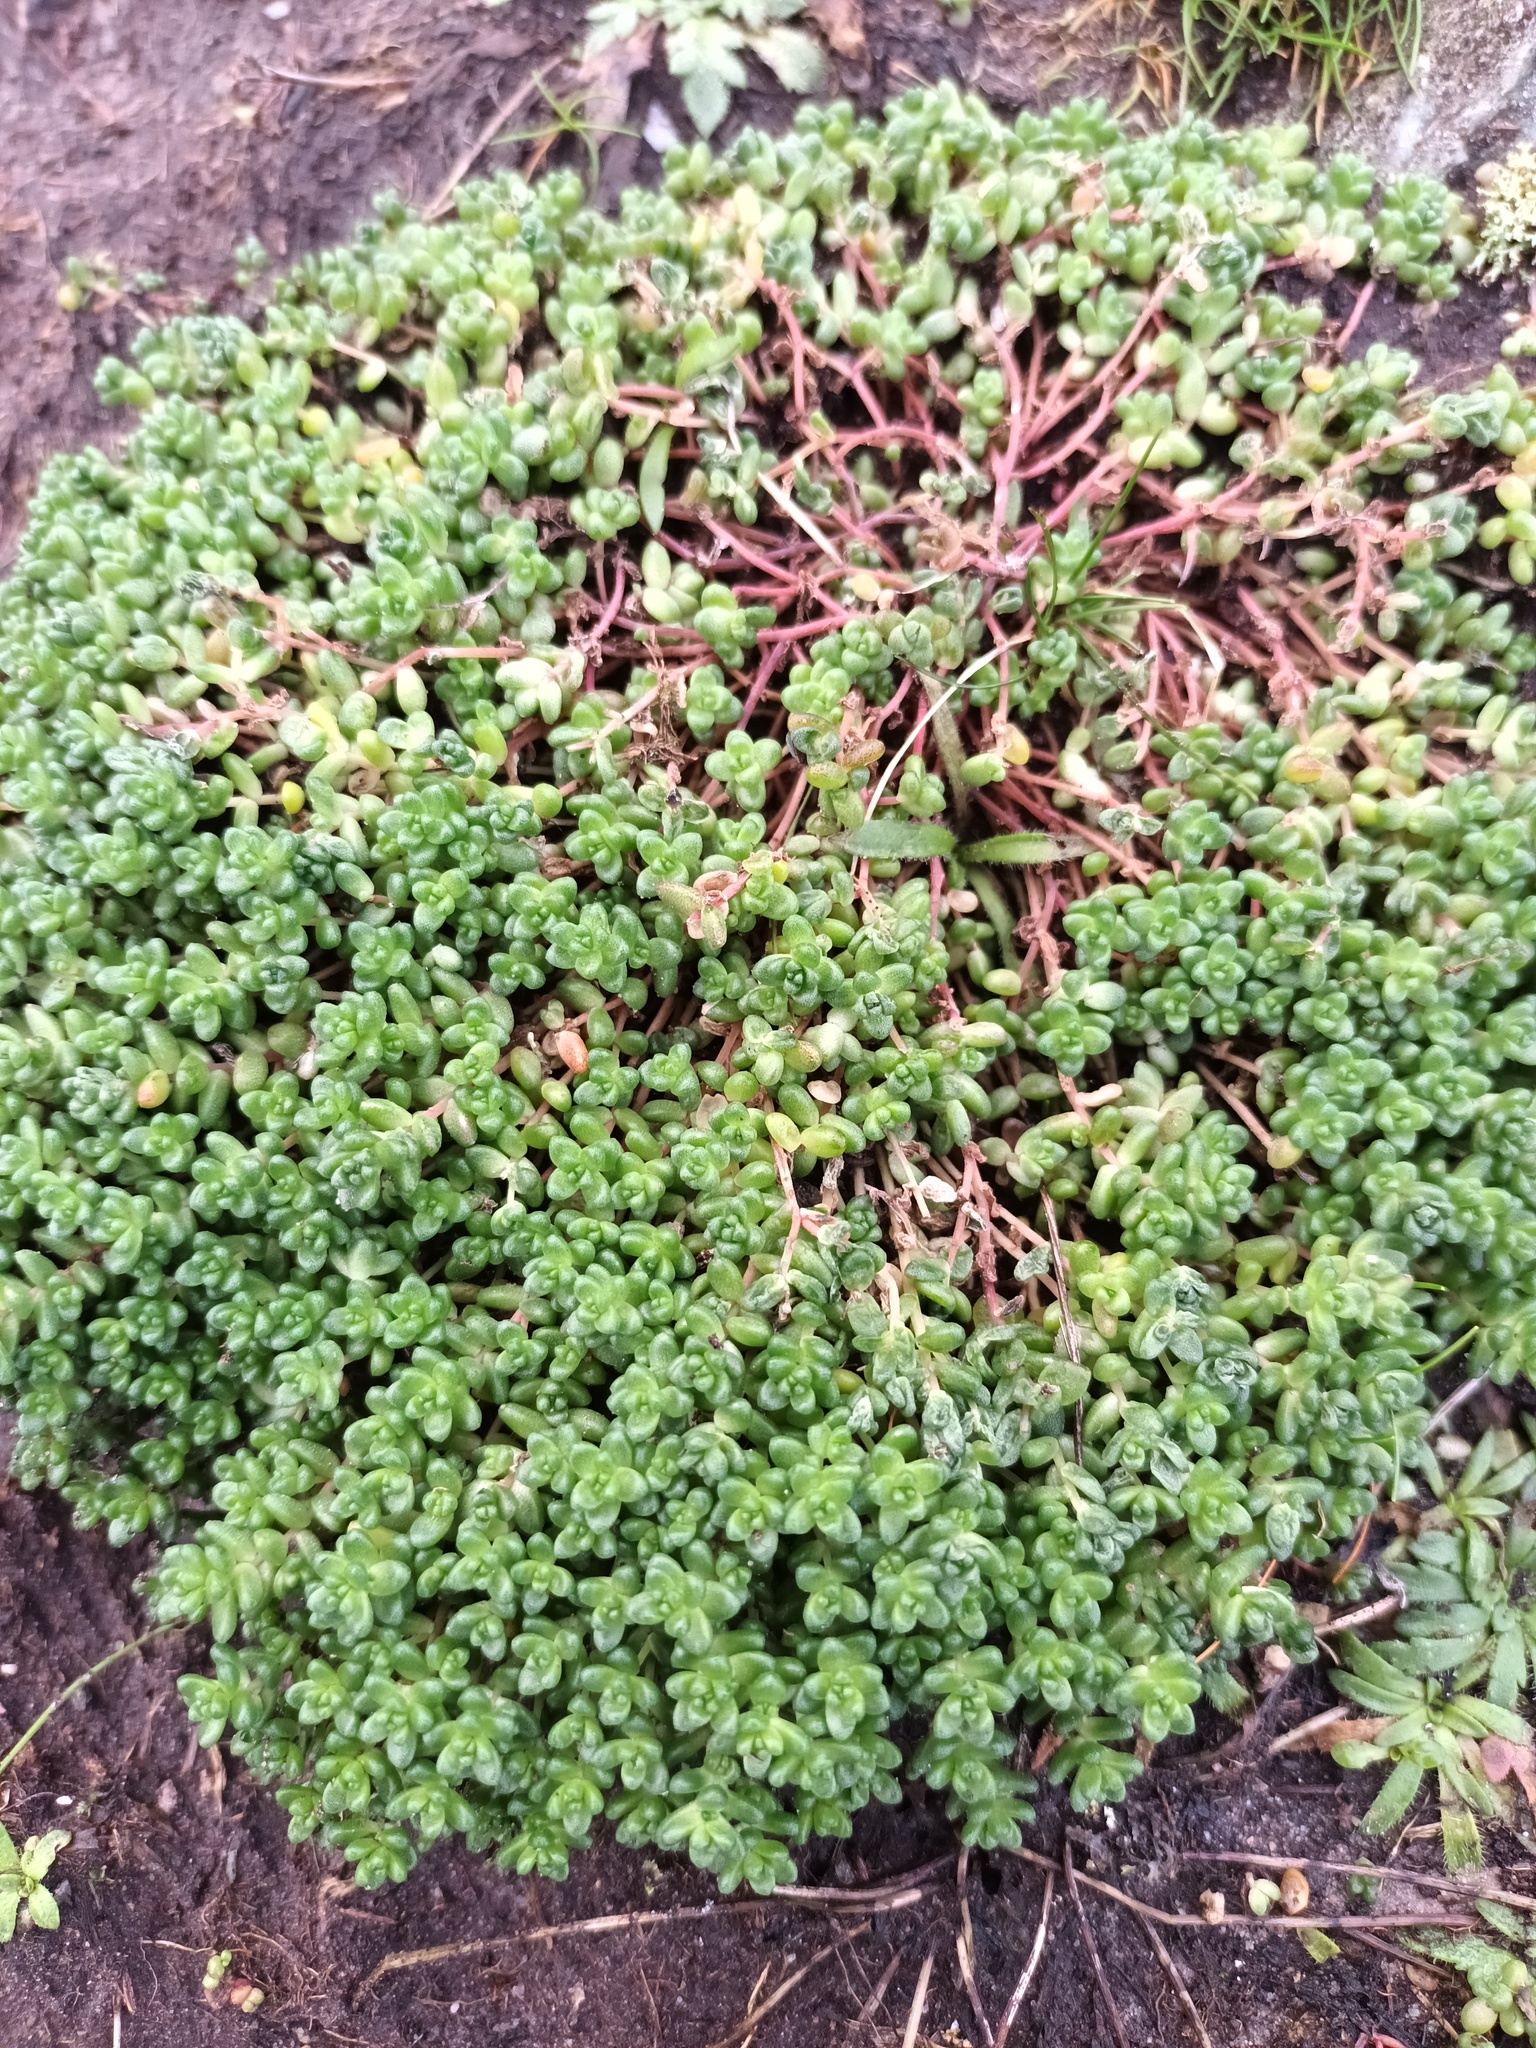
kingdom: Plantae
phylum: Tracheophyta
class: Magnoliopsida
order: Saxifragales
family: Crassulaceae
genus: Sedum
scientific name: Sedum anglicum
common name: English stonecrop
